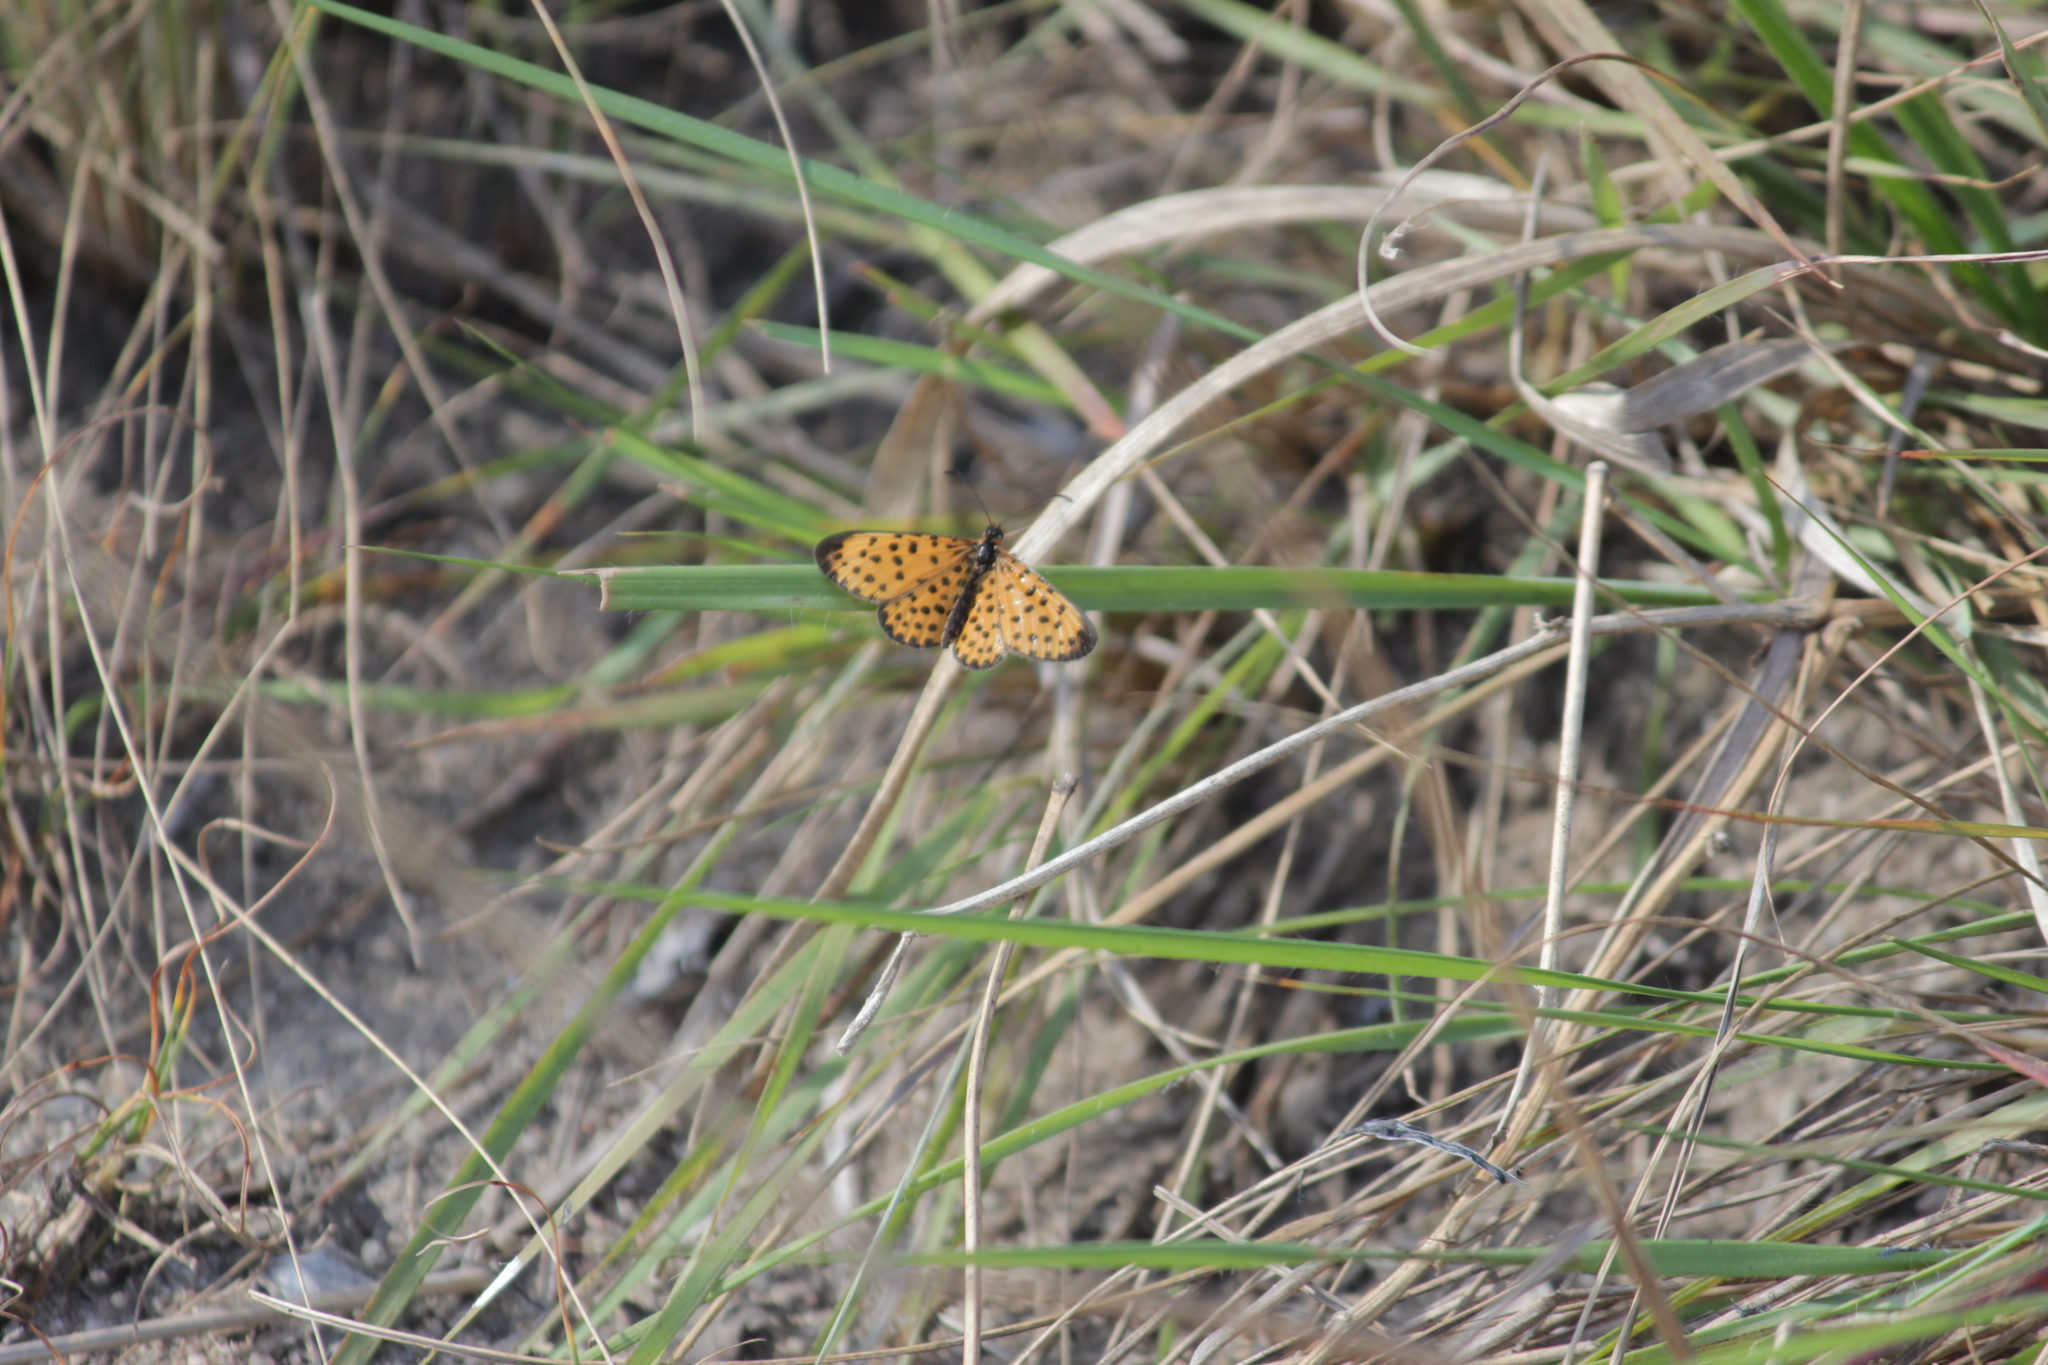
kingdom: Animalia
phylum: Arthropoda
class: Insecta
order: Lepidoptera
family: Nymphalidae
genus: Pardopsis
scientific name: Pardopsis punctatissima
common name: Polka dot
